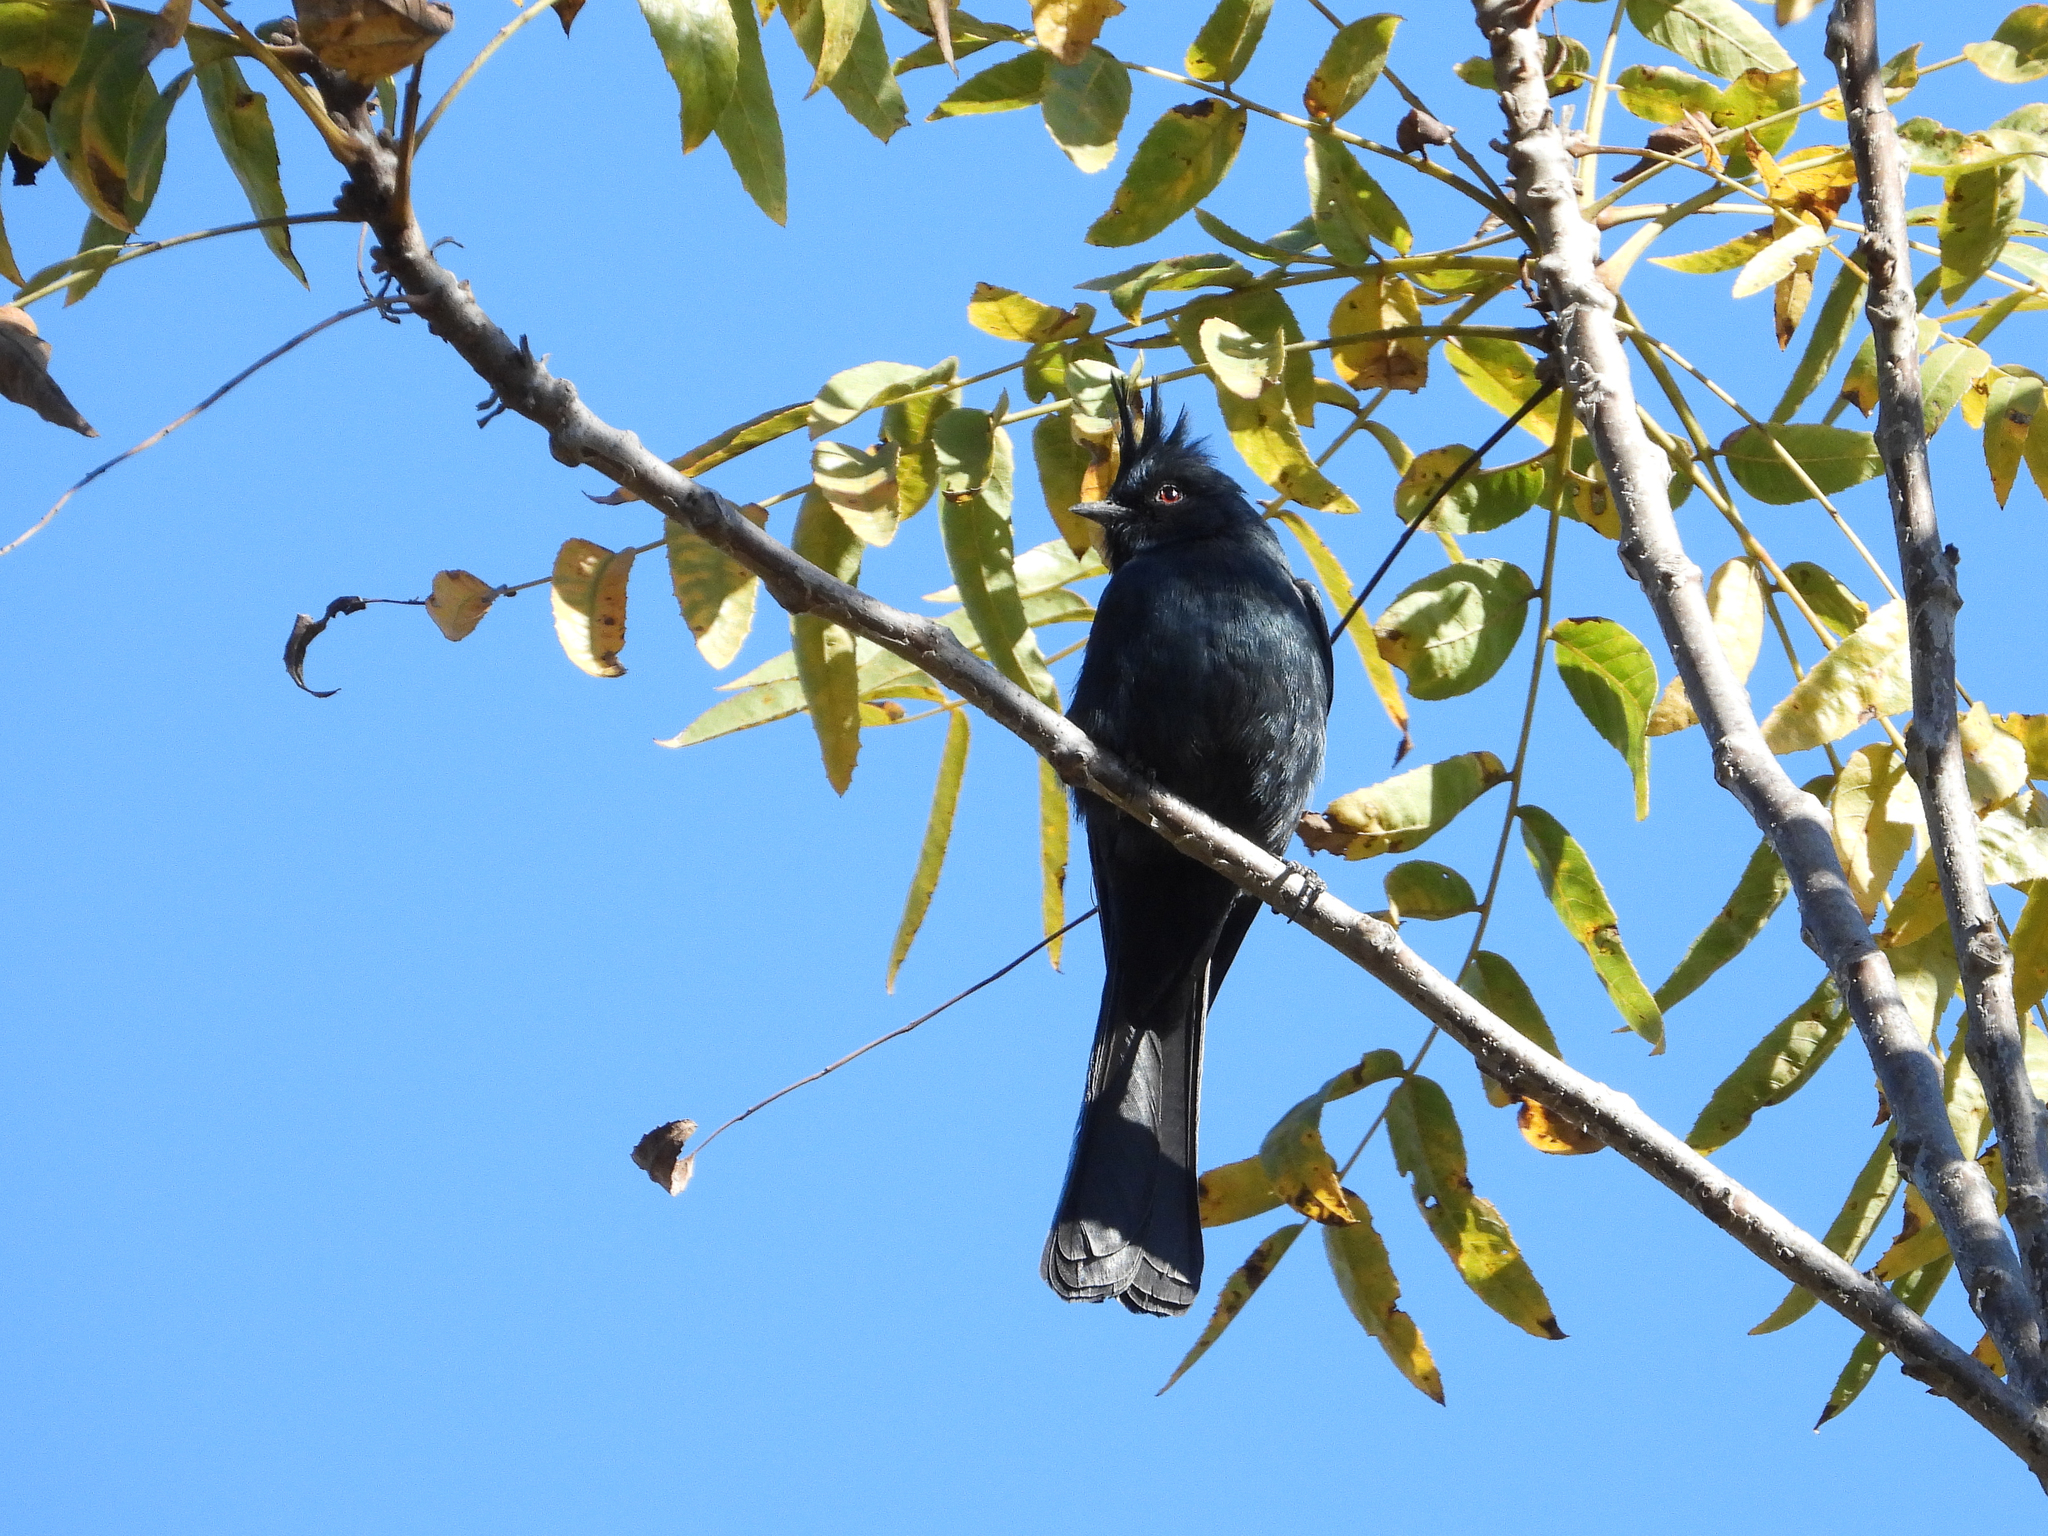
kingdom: Animalia
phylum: Chordata
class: Aves
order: Passeriformes
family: Ptilogonatidae
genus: Phainopepla
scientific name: Phainopepla nitens
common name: Phainopepla
